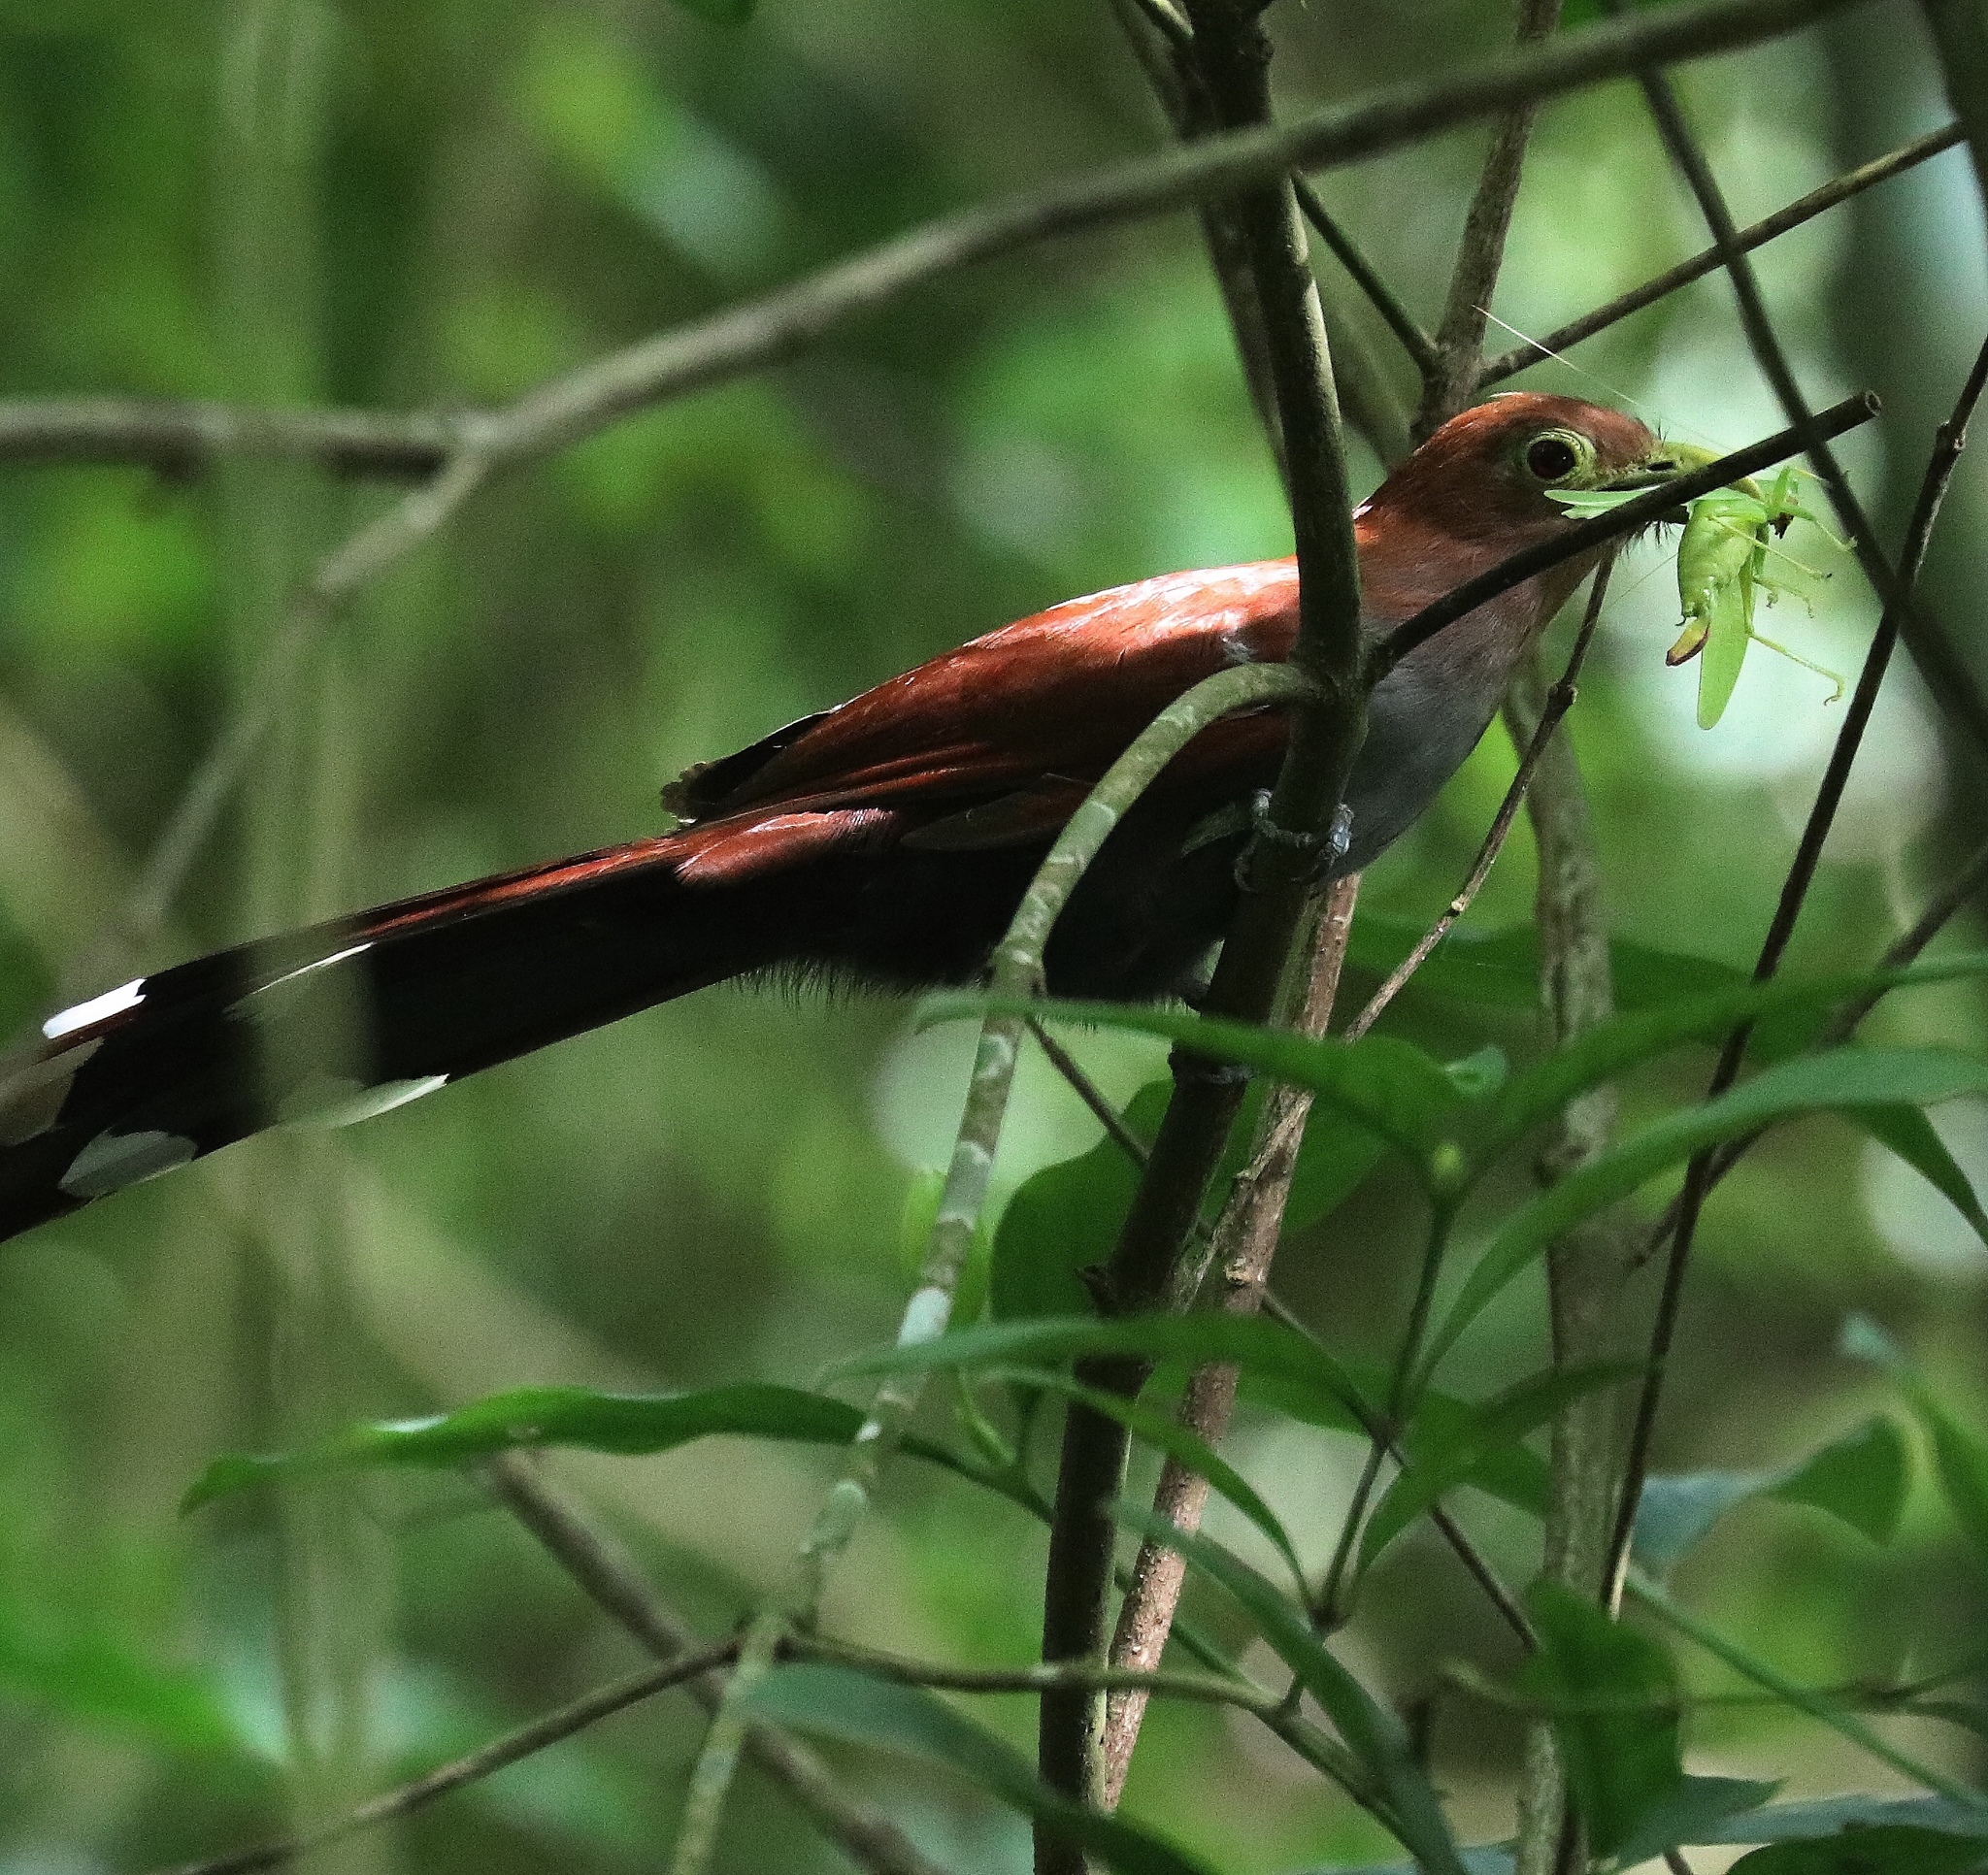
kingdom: Animalia
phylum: Chordata
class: Aves
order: Cuculiformes
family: Cuculidae
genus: Piaya
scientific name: Piaya cayana
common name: Squirrel cuckoo
